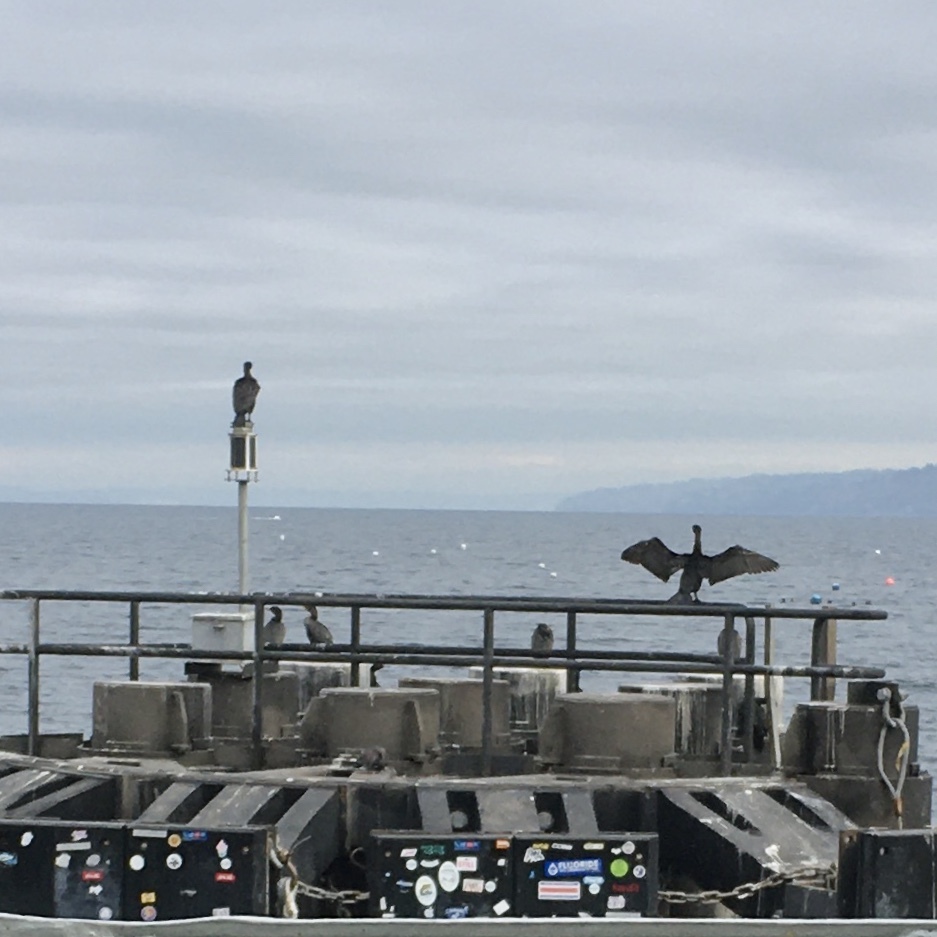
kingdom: Animalia
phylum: Chordata
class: Aves
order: Suliformes
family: Phalacrocoracidae
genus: Phalacrocorax
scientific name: Phalacrocorax auritus
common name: Double-crested cormorant
